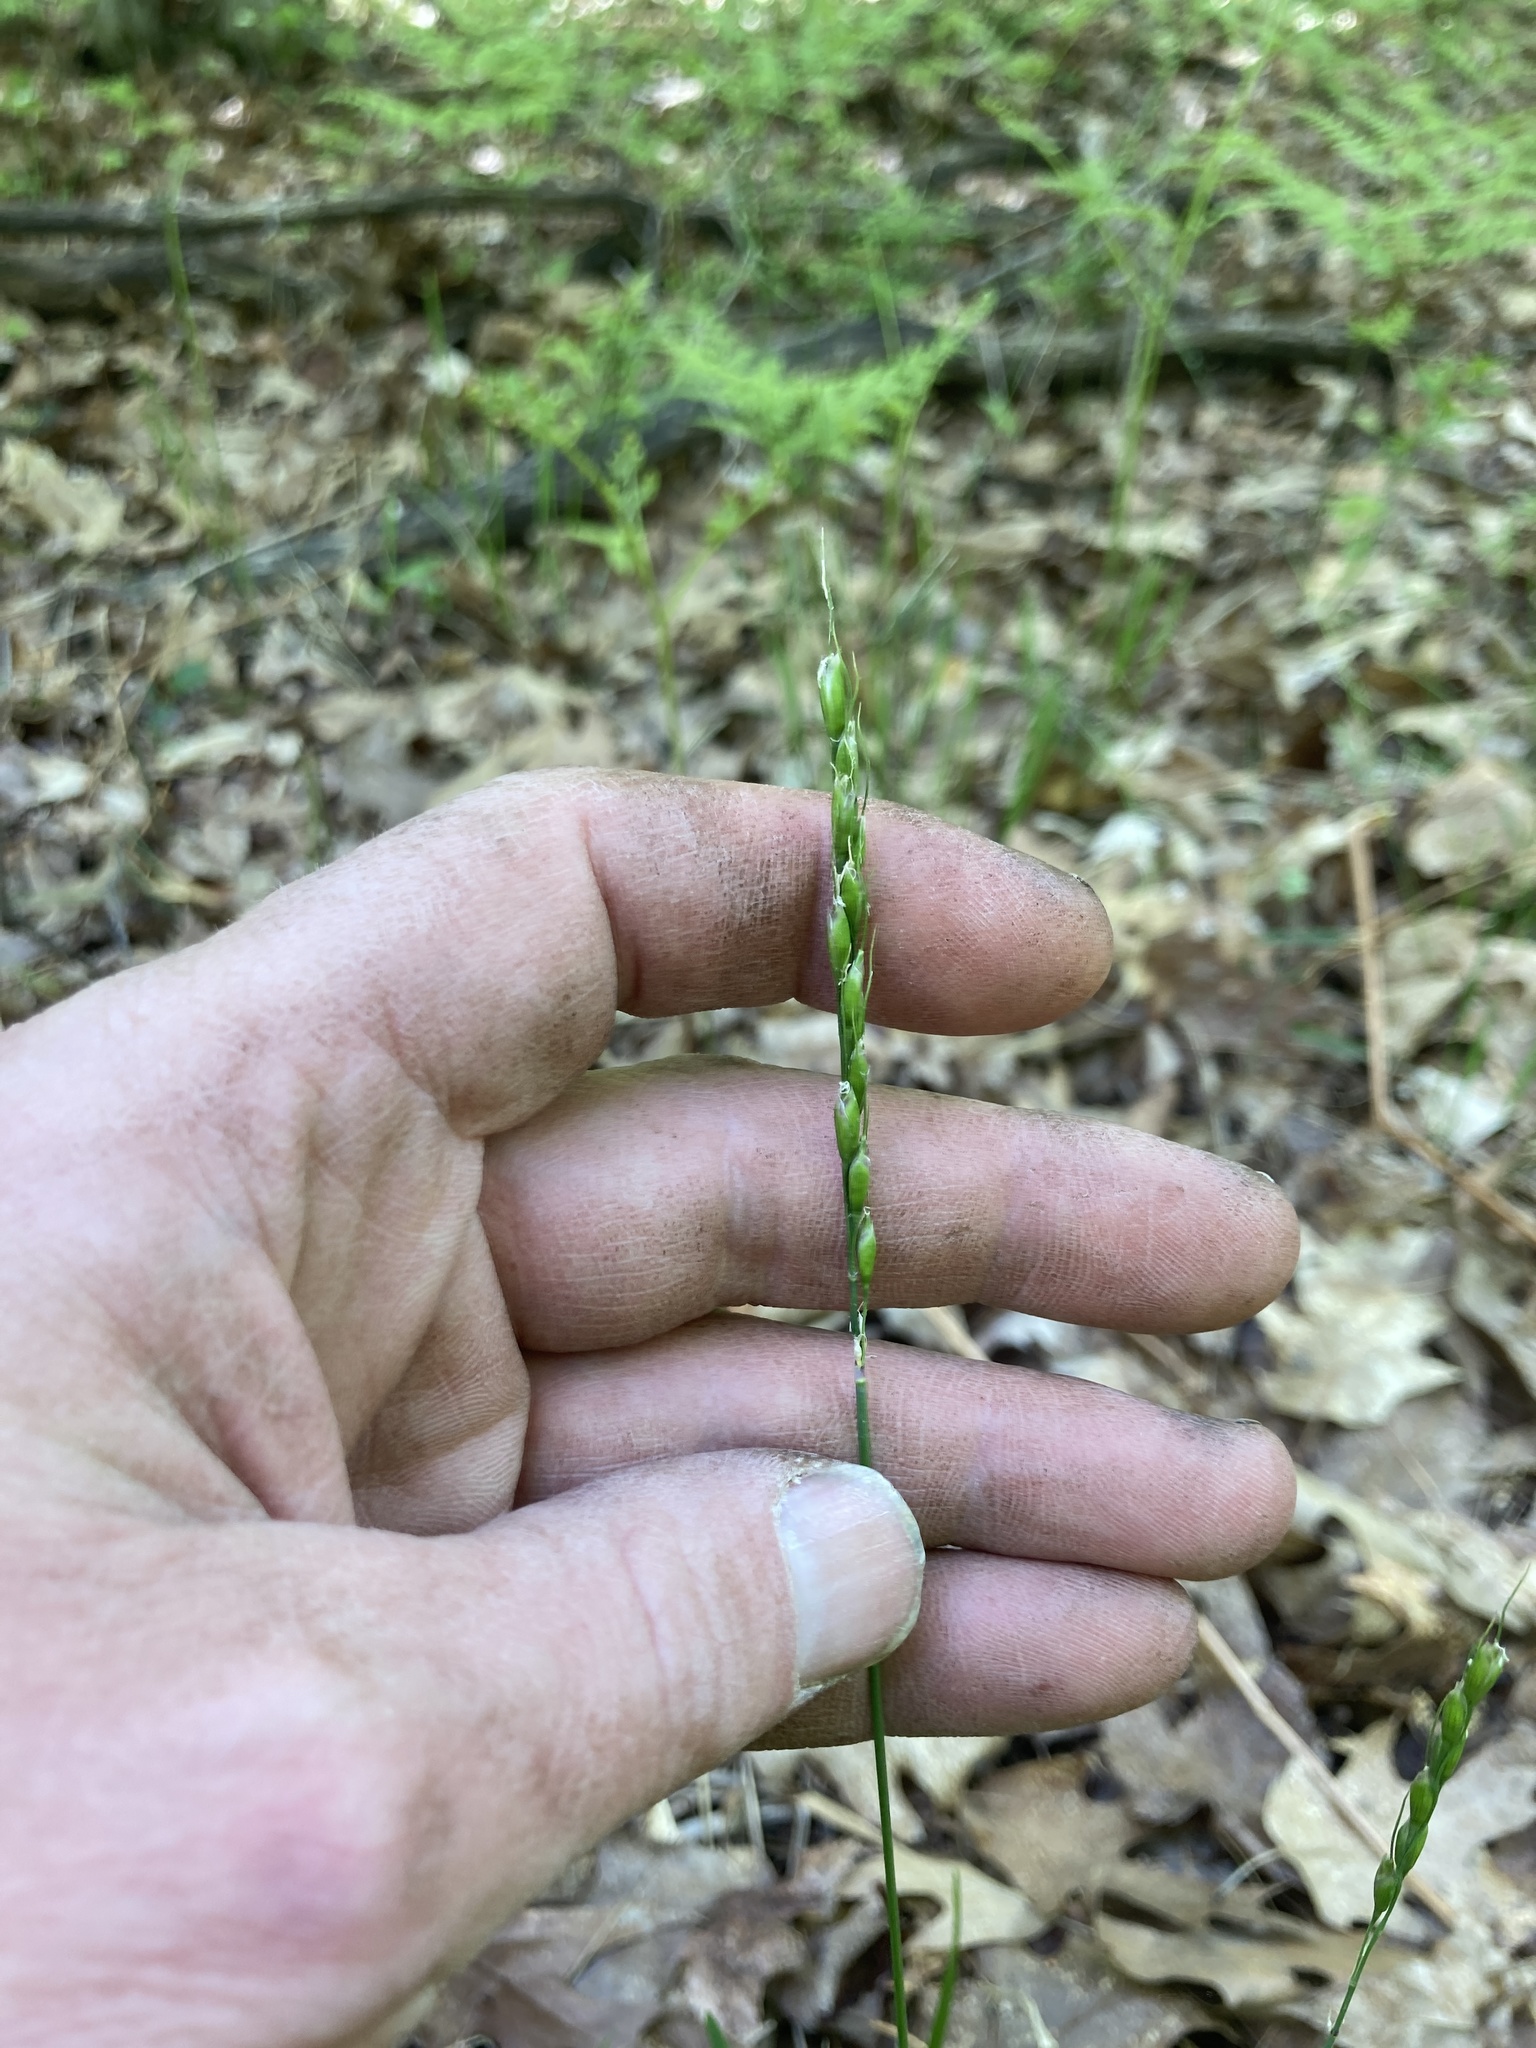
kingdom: Plantae
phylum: Tracheophyta
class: Liliopsida
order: Poales
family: Poaceae
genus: Oryzopsis
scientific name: Oryzopsis asperifolia
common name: Rough-leaved mountain rice
